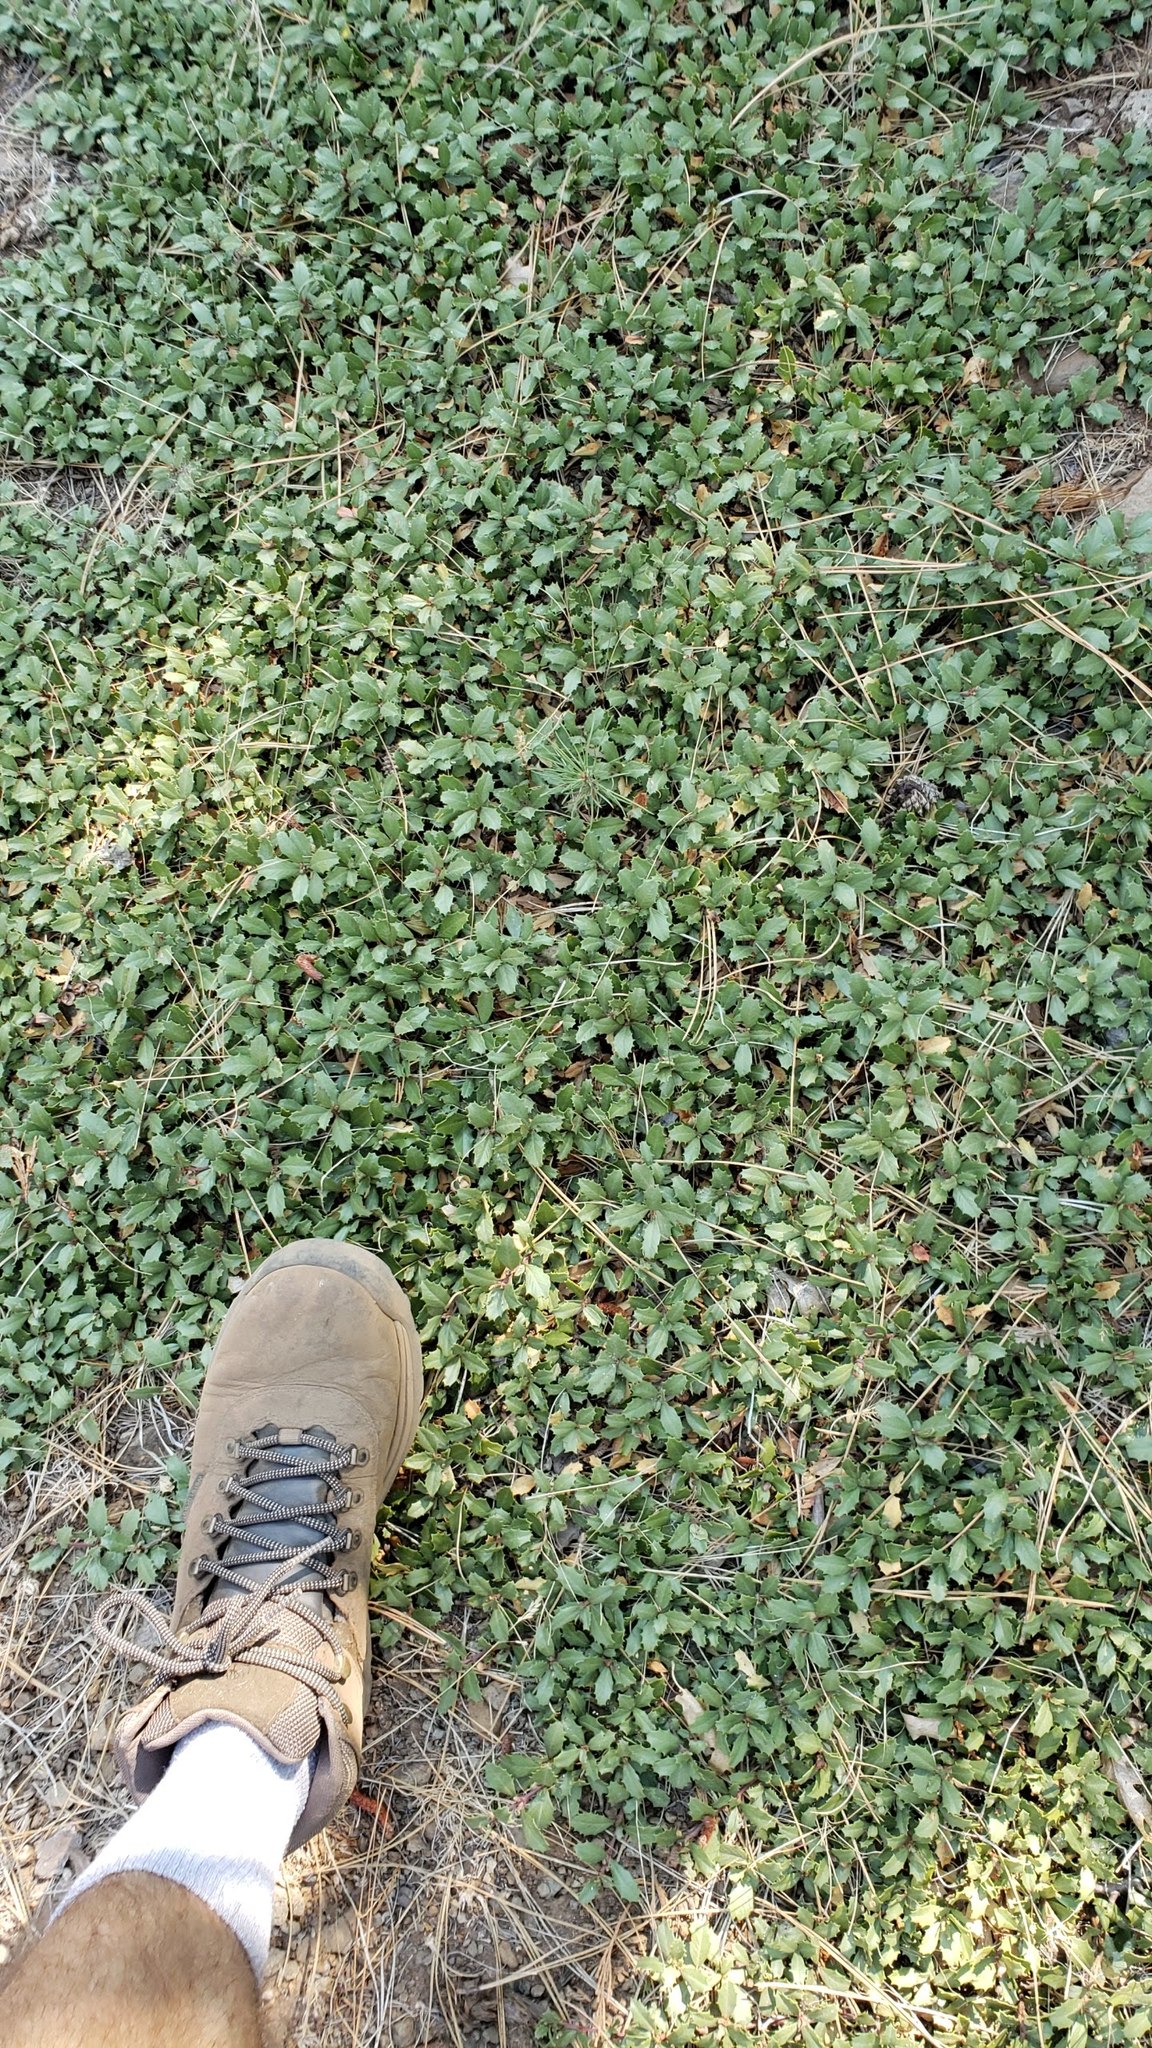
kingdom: Plantae
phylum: Tracheophyta
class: Magnoliopsida
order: Rosales
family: Rhamnaceae
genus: Ceanothus
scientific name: Ceanothus prostratus
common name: Mahala-mat
